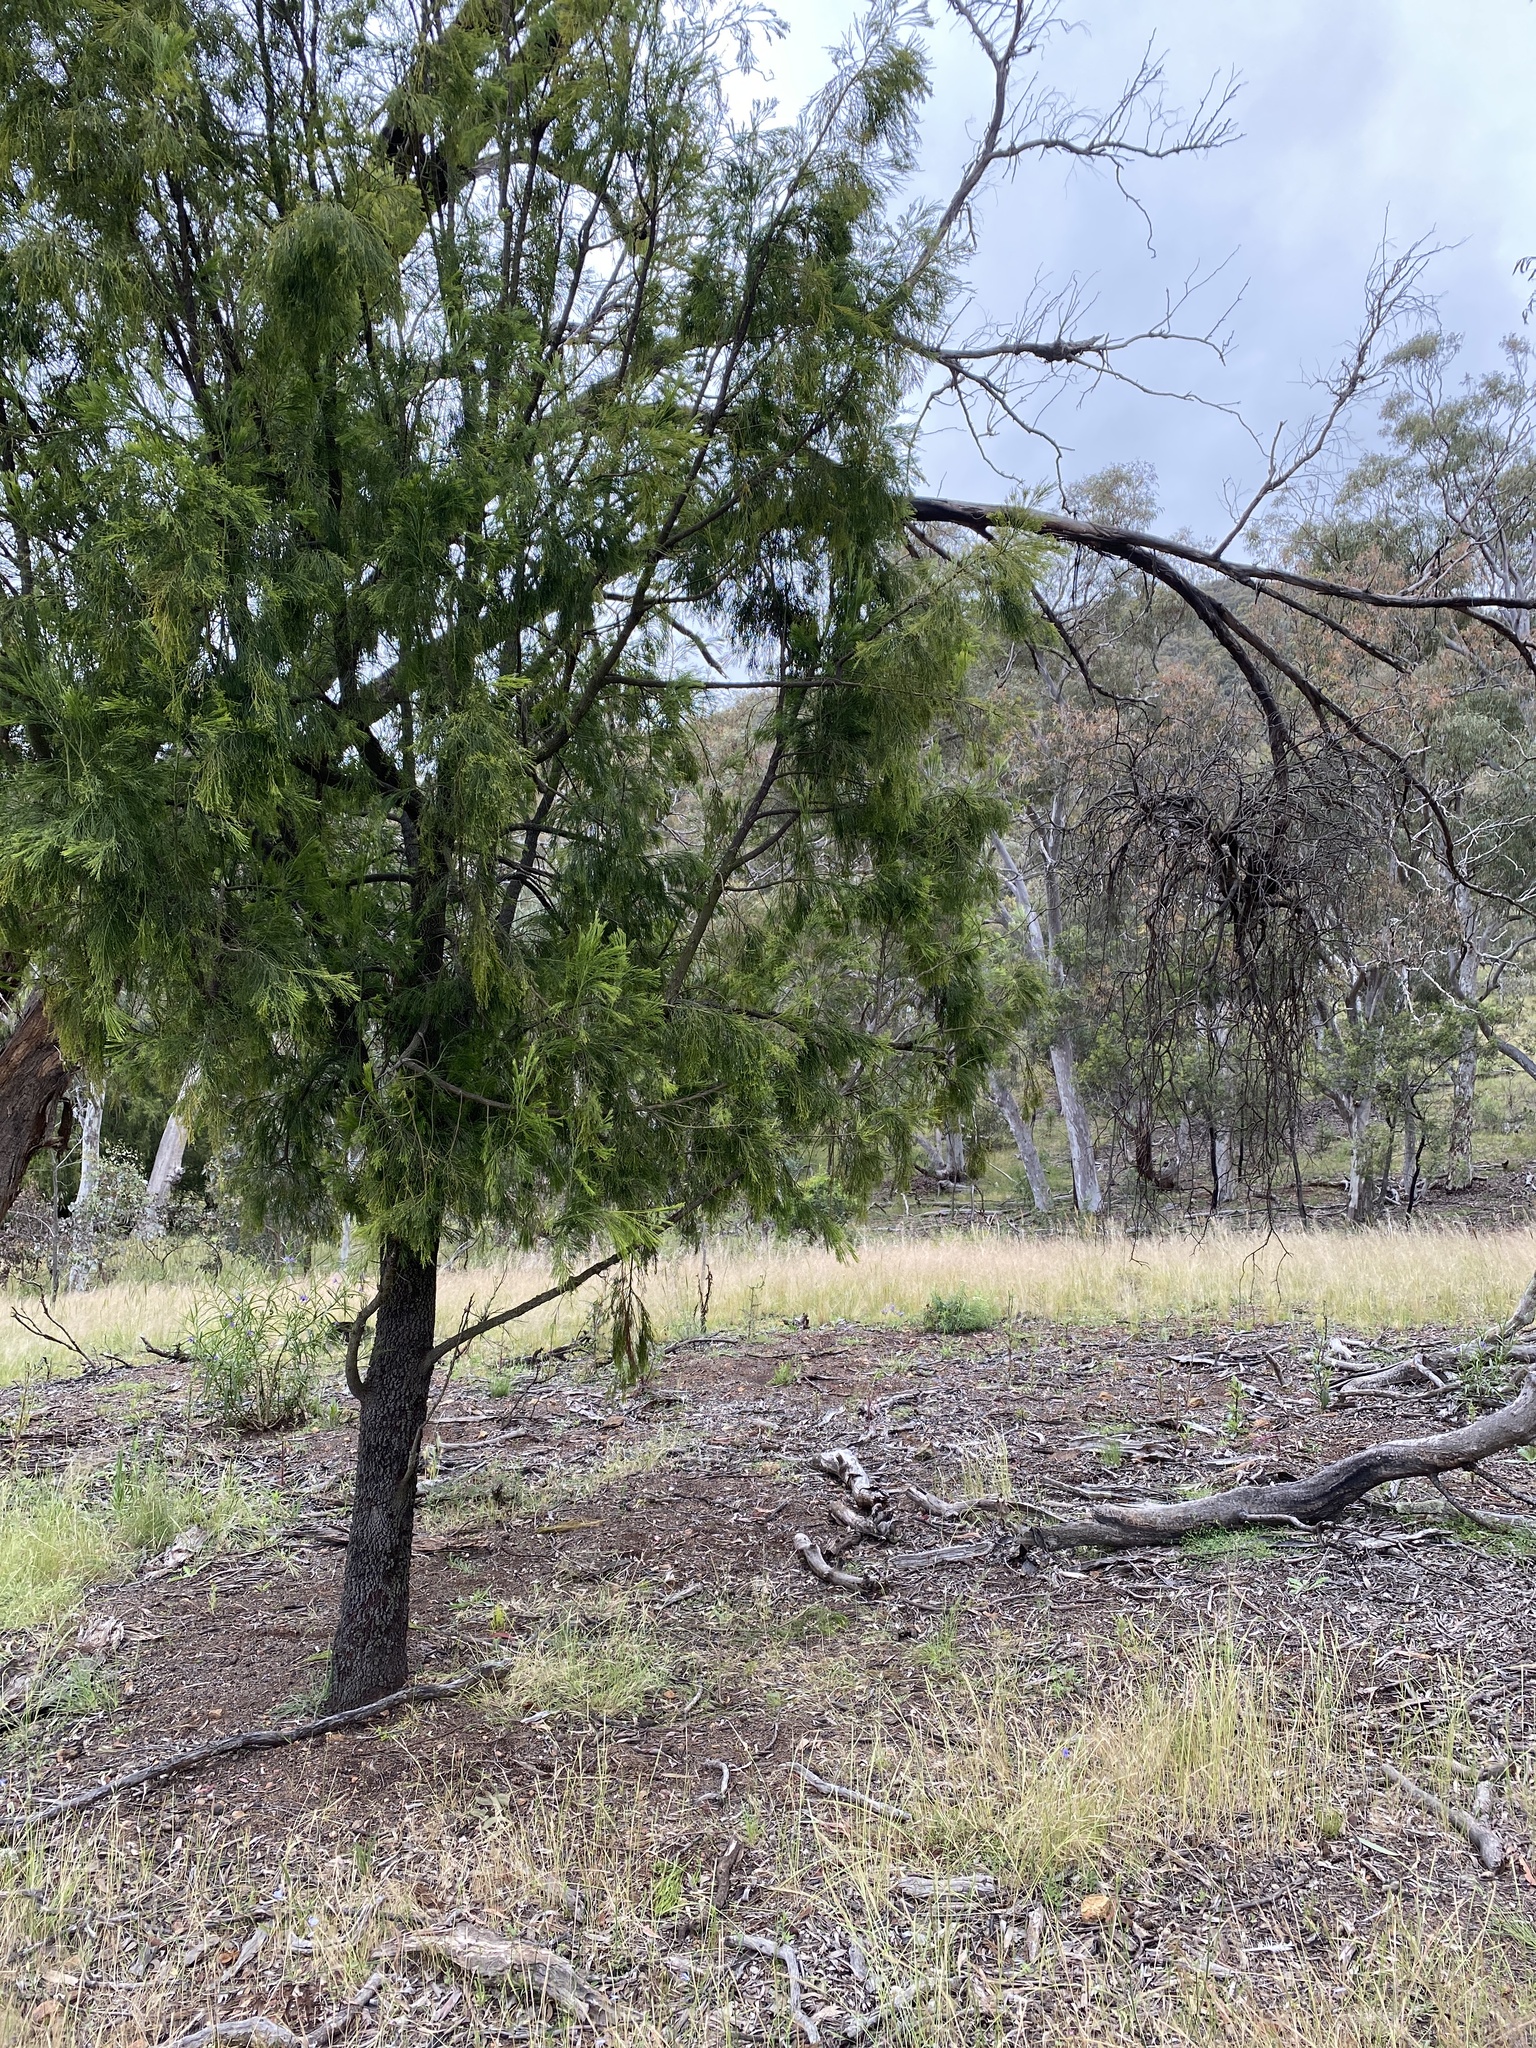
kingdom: Plantae
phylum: Tracheophyta
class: Magnoliopsida
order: Santalales
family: Santalaceae
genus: Exocarpos
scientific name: Exocarpos cupressiformis
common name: Cherry ballart
